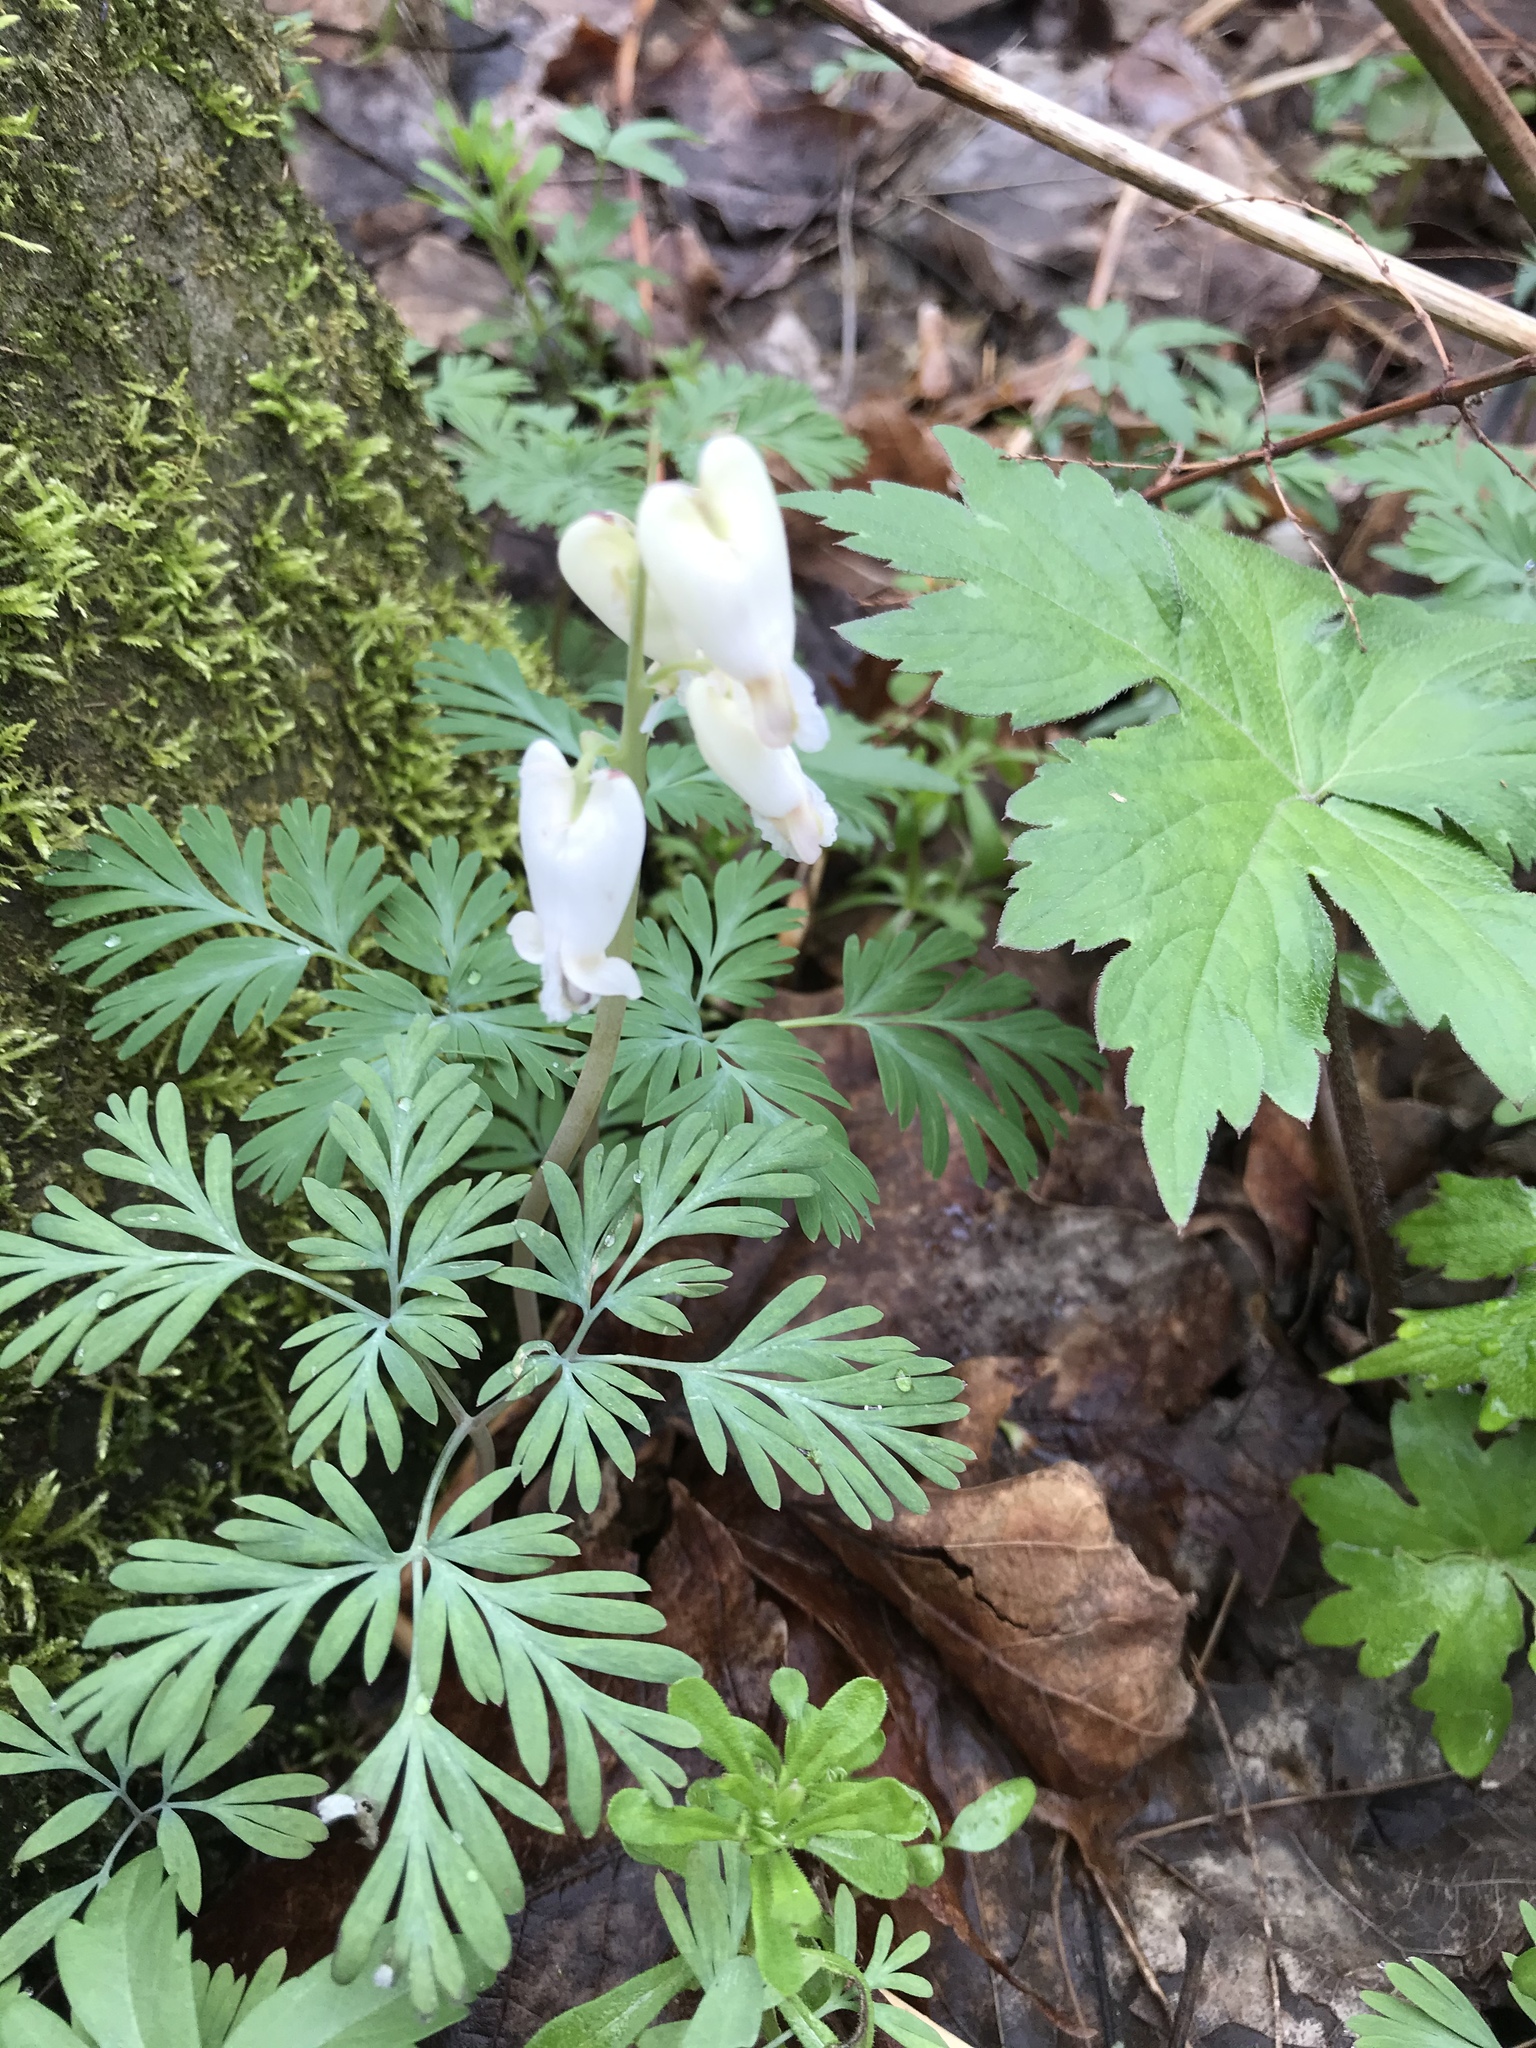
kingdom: Plantae
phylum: Tracheophyta
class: Magnoliopsida
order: Ranunculales
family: Papaveraceae
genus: Dicentra
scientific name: Dicentra canadensis
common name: Squirrel-corn
